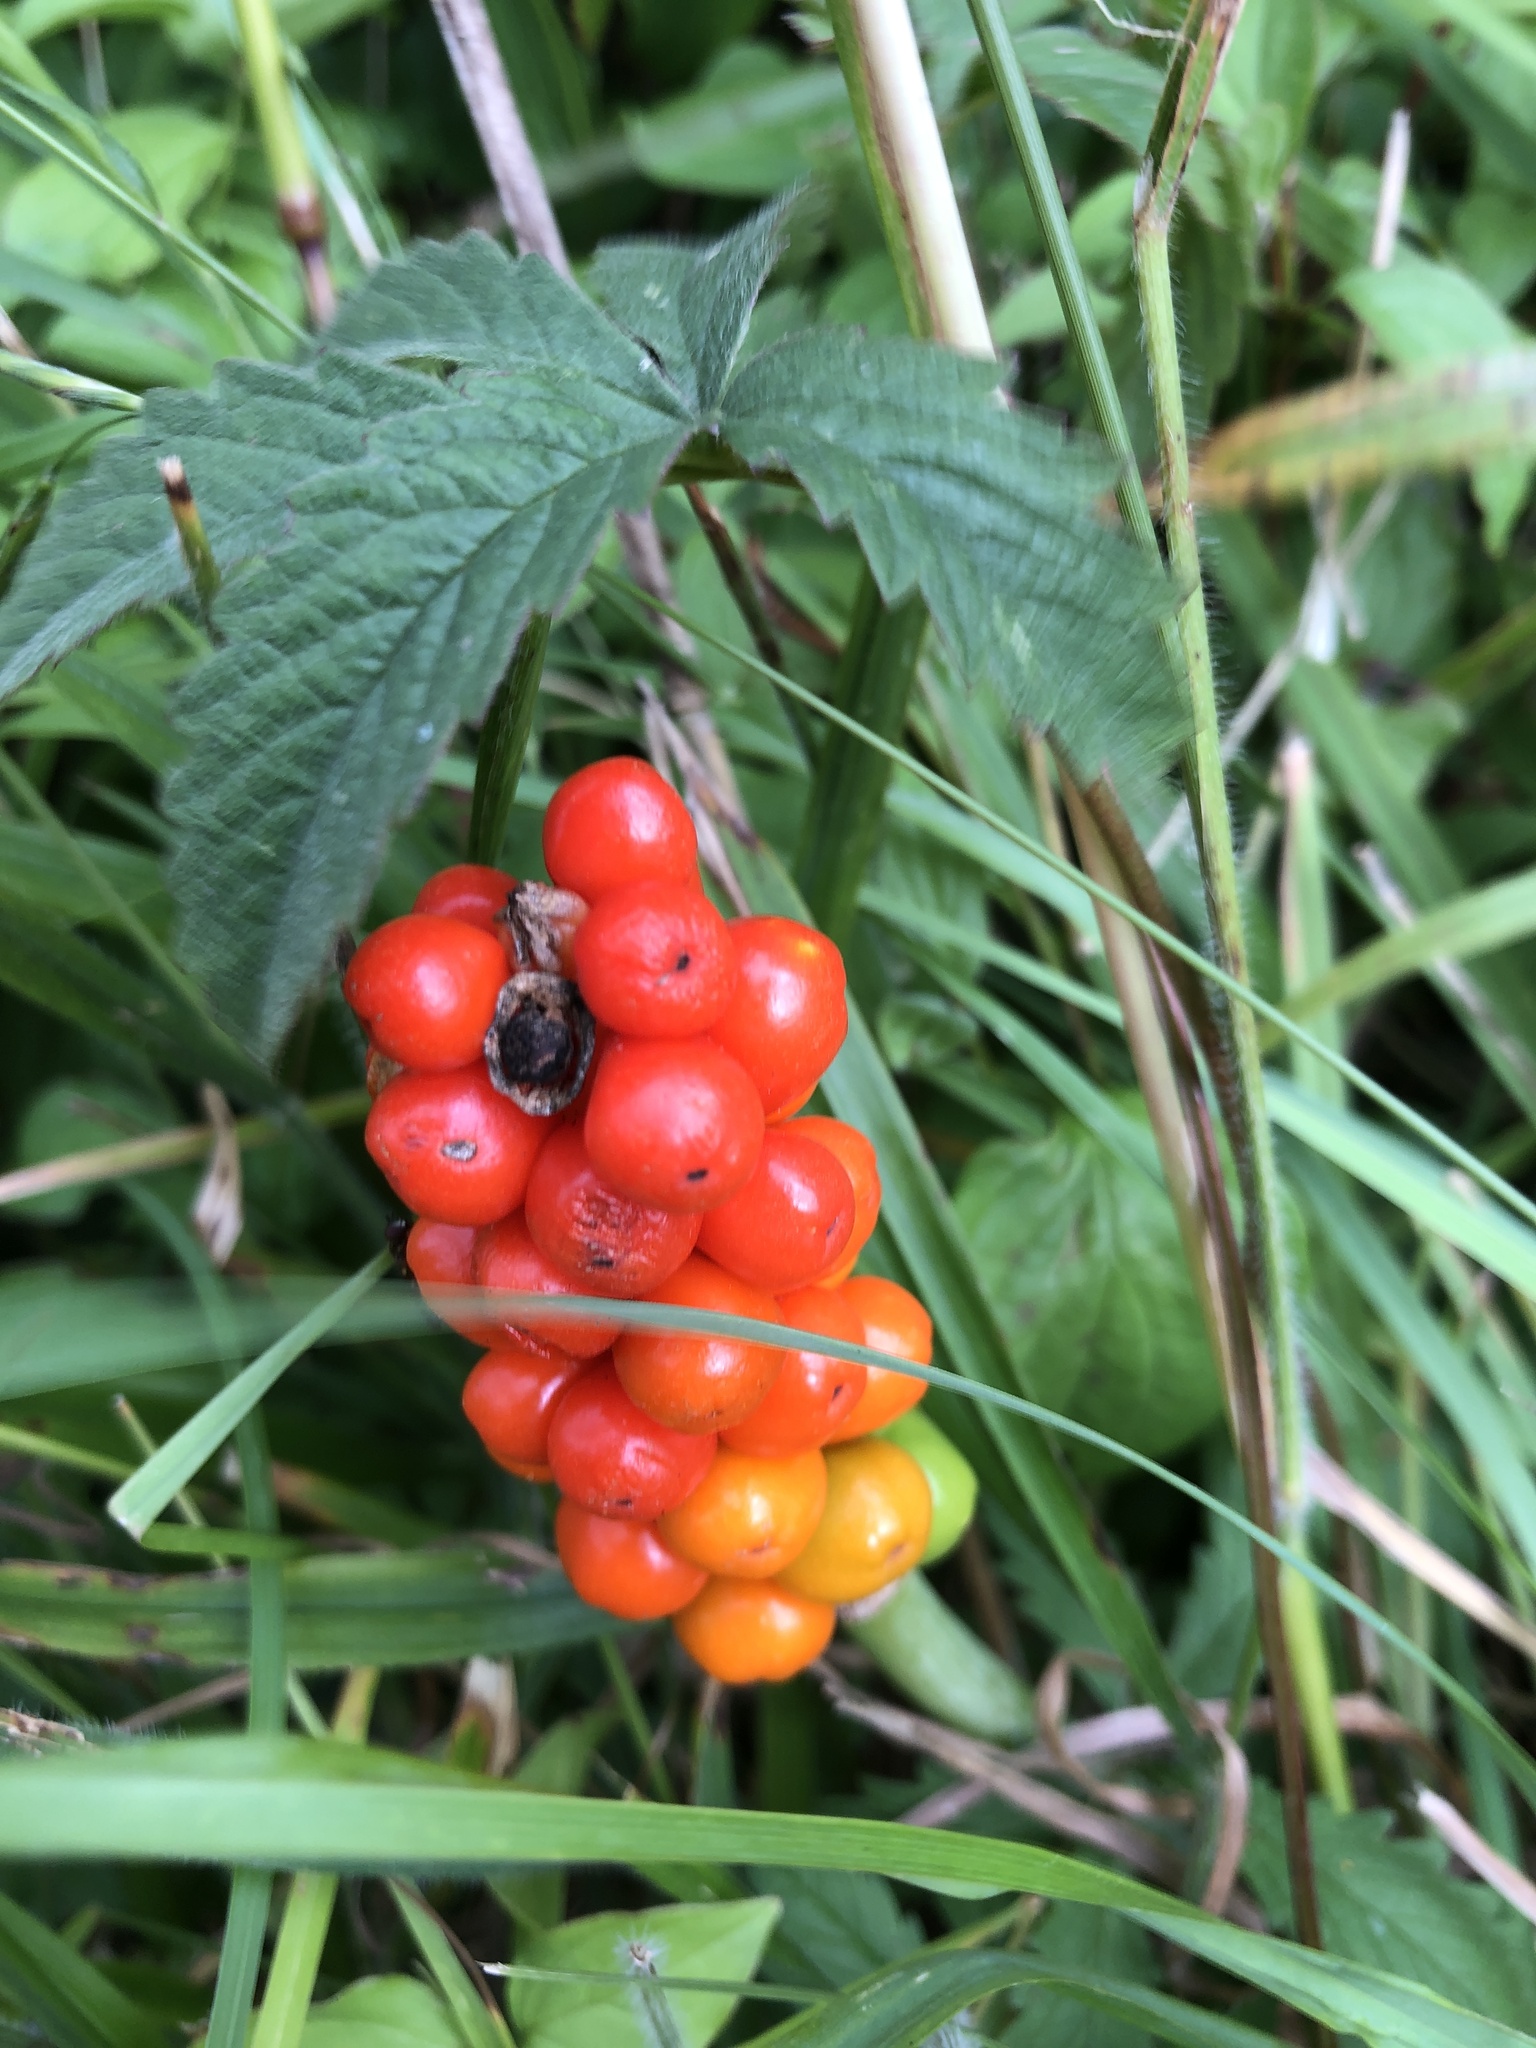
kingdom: Plantae
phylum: Tracheophyta
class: Liliopsida
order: Alismatales
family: Araceae
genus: Arum
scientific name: Arum maculatum
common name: Lords-and-ladies
